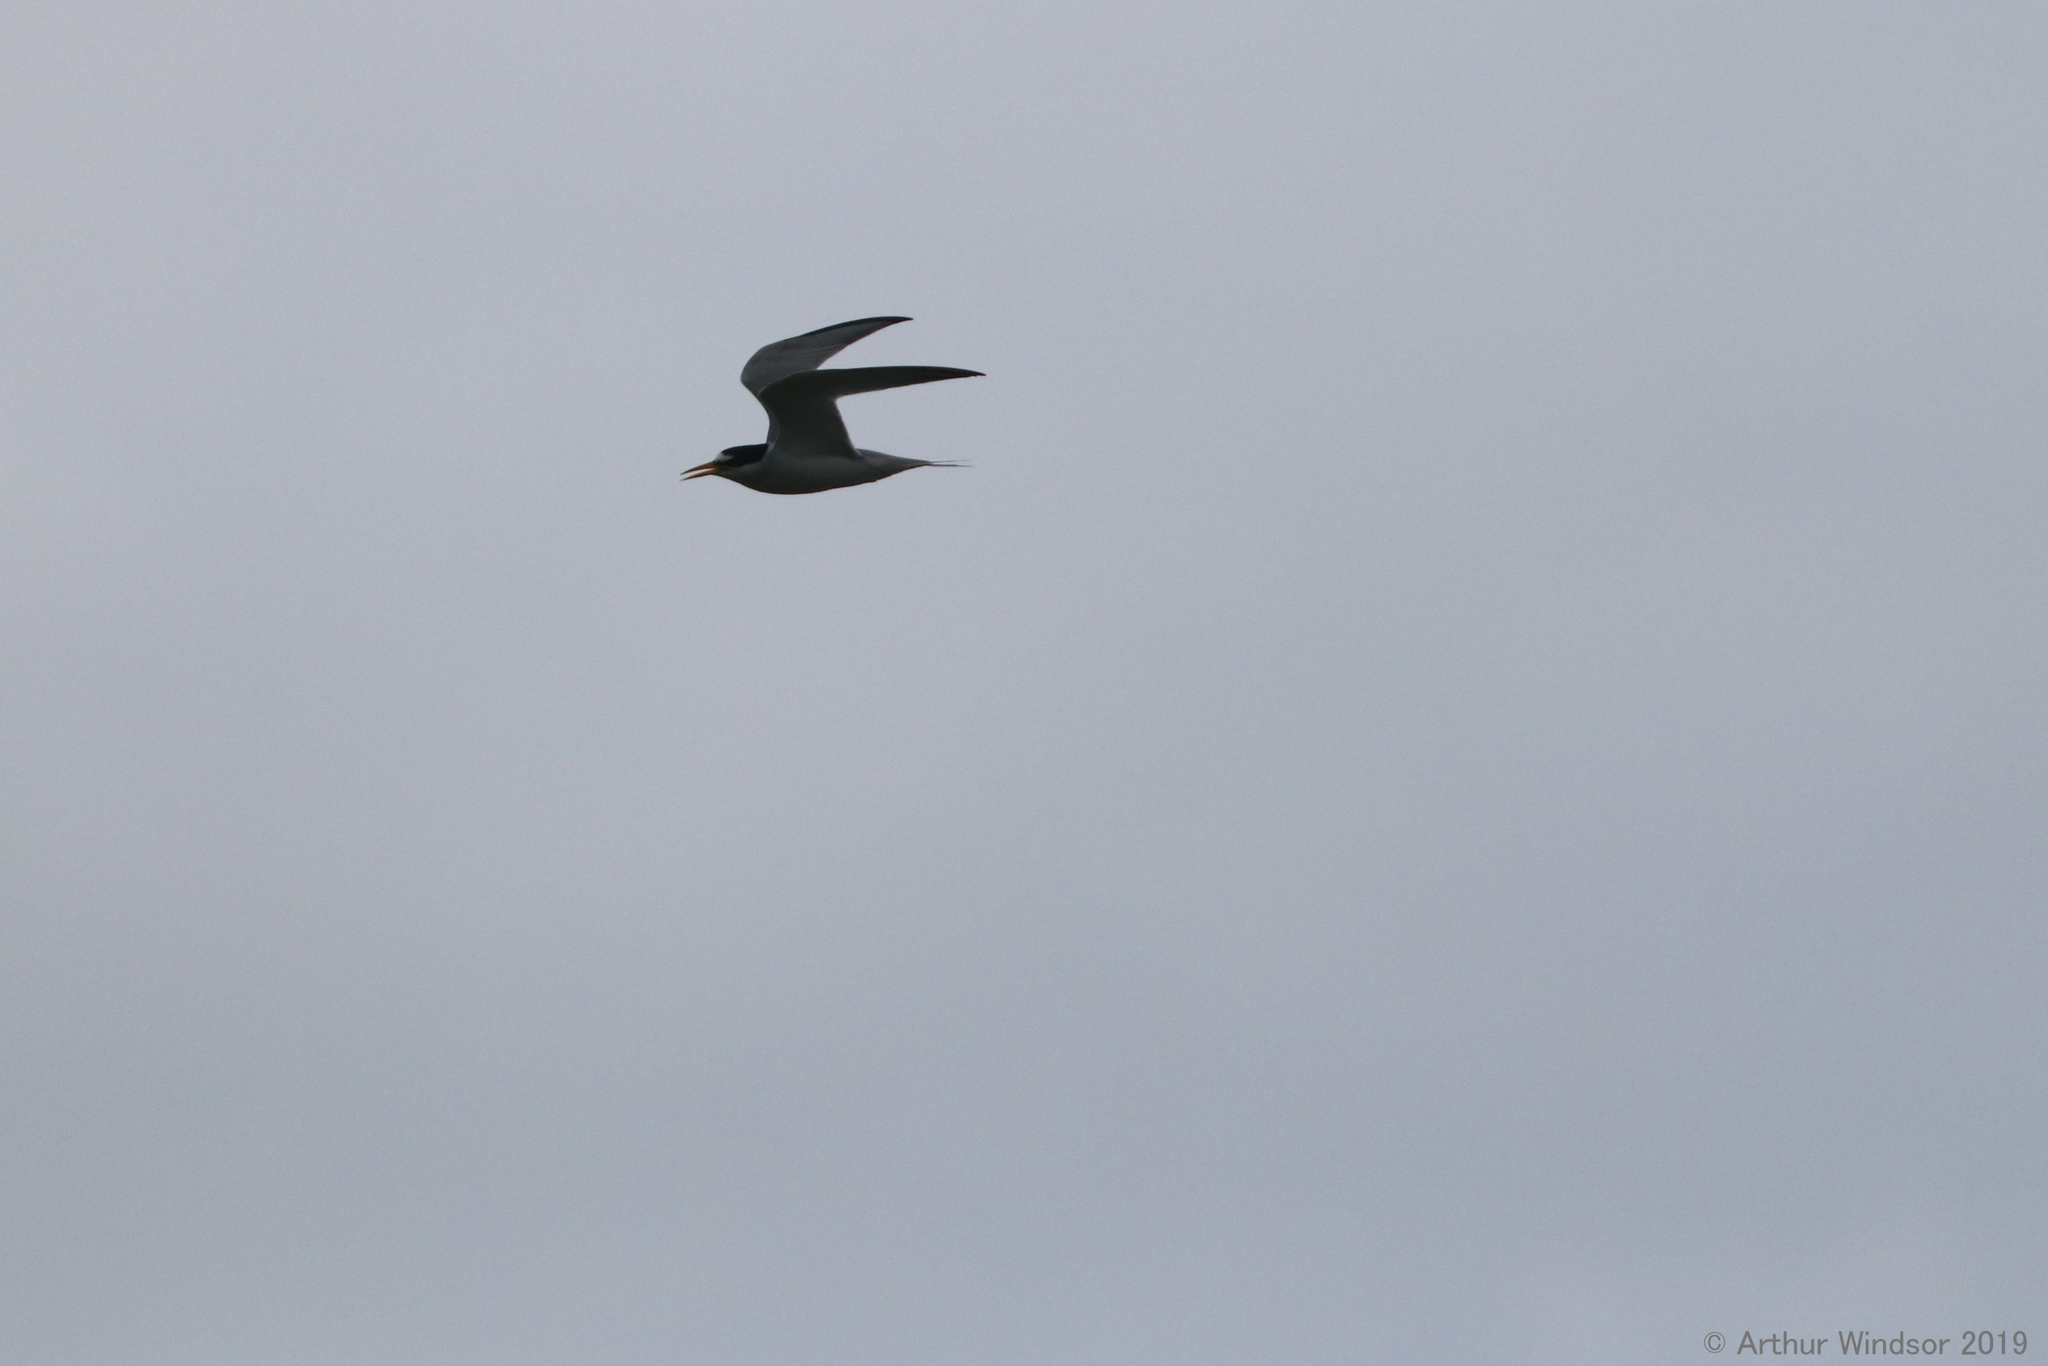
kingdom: Animalia
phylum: Chordata
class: Aves
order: Charadriiformes
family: Laridae
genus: Sternula
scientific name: Sternula antillarum
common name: Least tern
